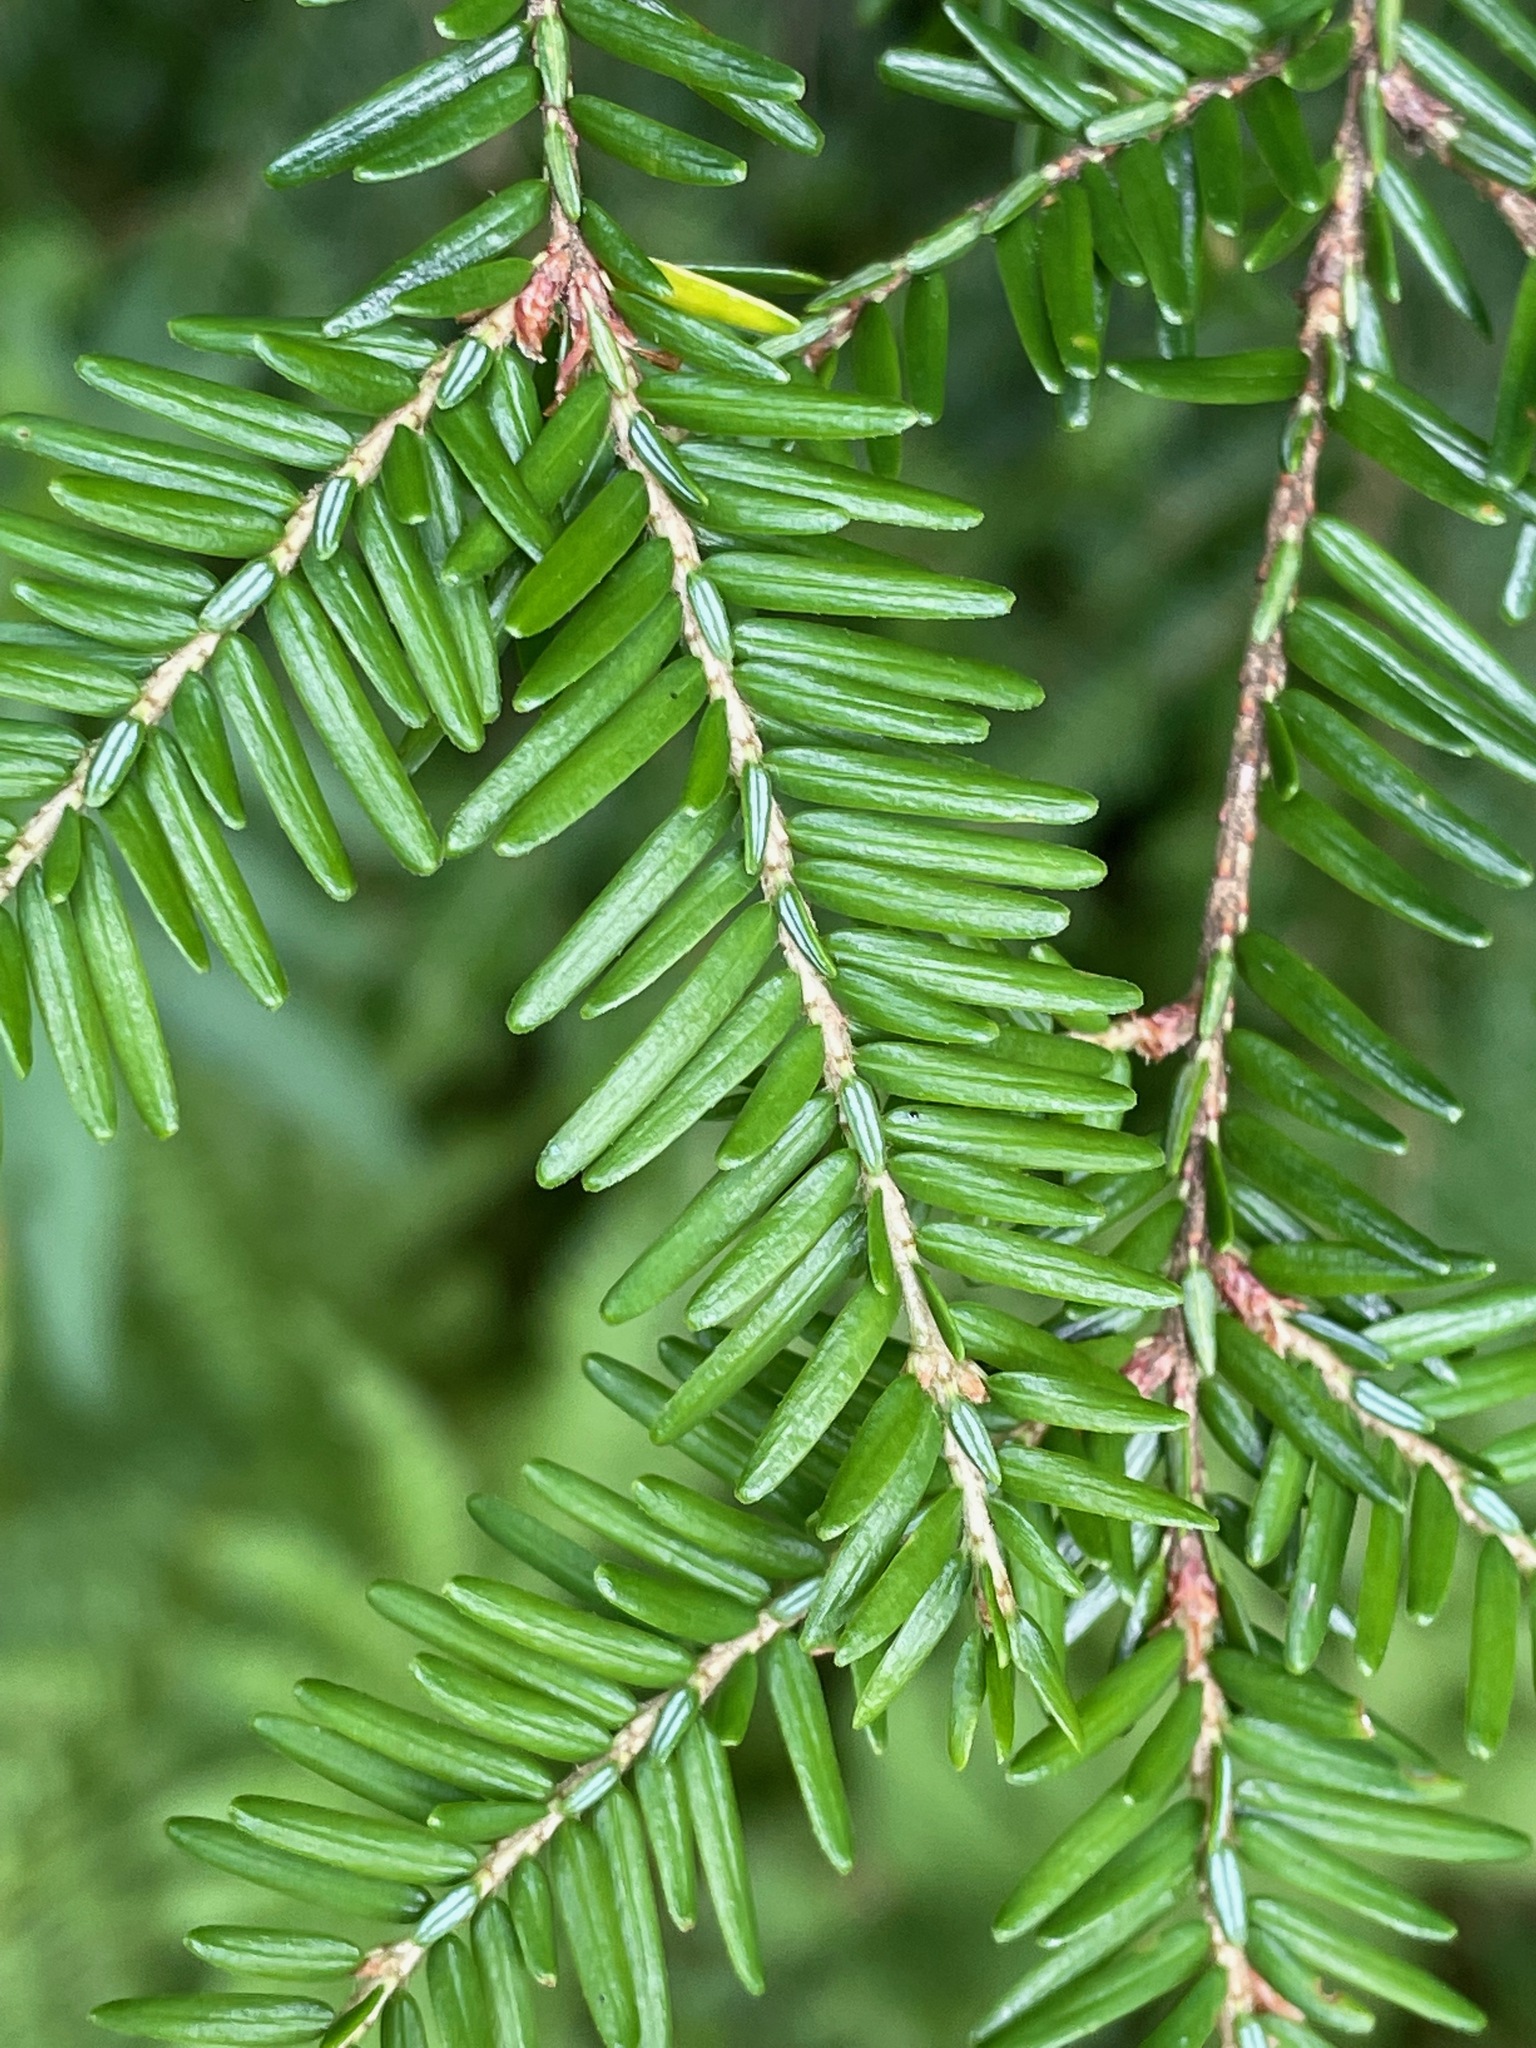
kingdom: Plantae
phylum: Tracheophyta
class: Pinopsida
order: Pinales
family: Pinaceae
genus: Tsuga
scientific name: Tsuga canadensis
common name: Eastern hemlock
